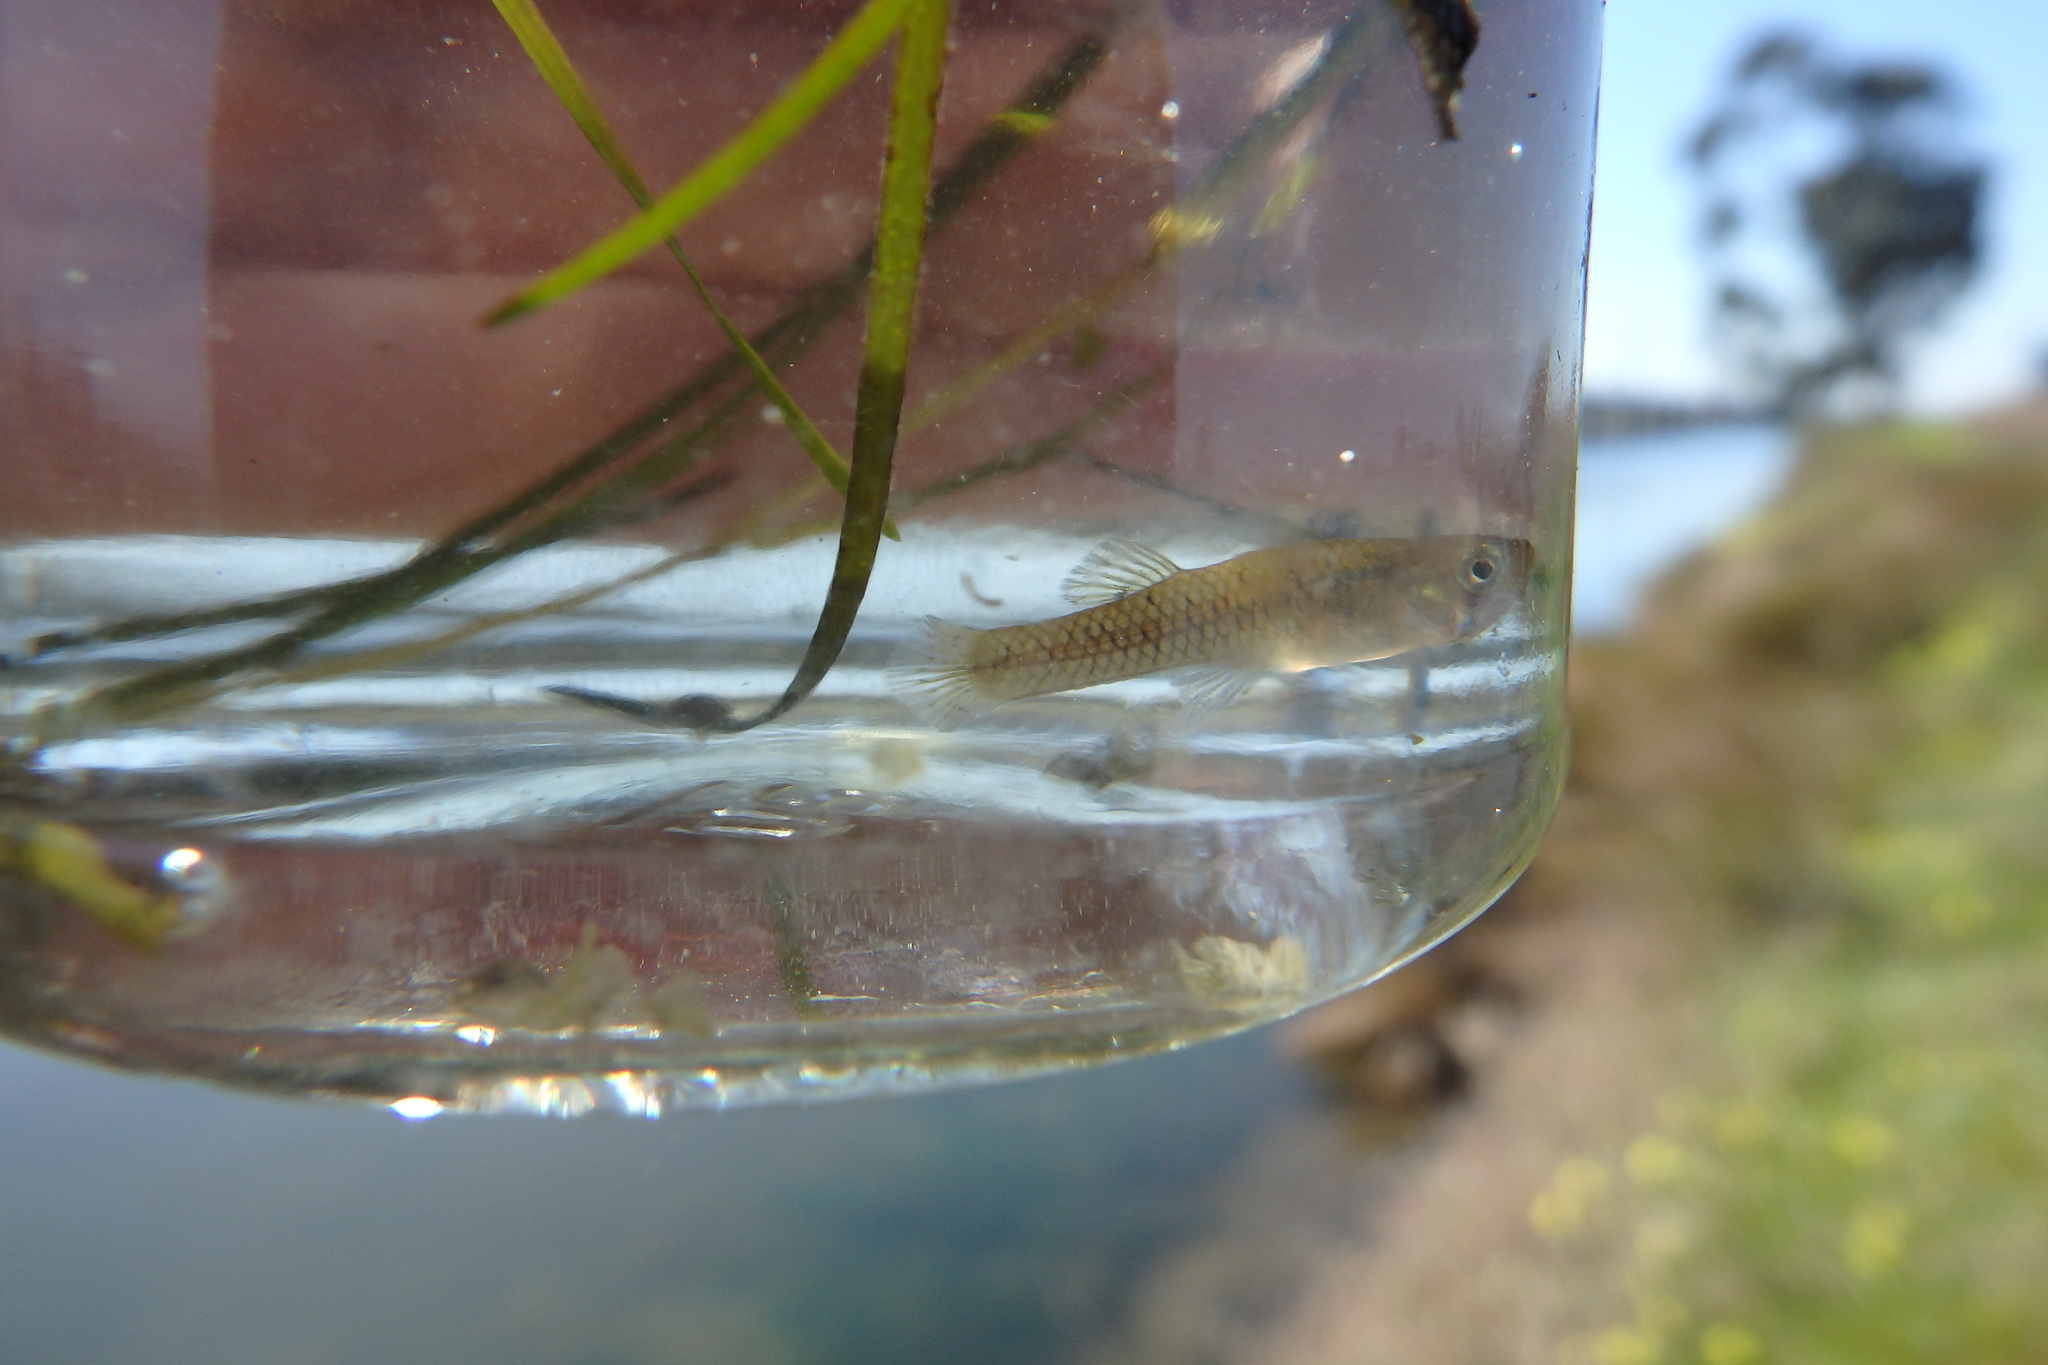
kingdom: Animalia
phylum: Chordata
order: Cyprinodontiformes
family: Poeciliidae
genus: Gambusia
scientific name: Gambusia holbrooki
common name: Eastern mosquitofish
